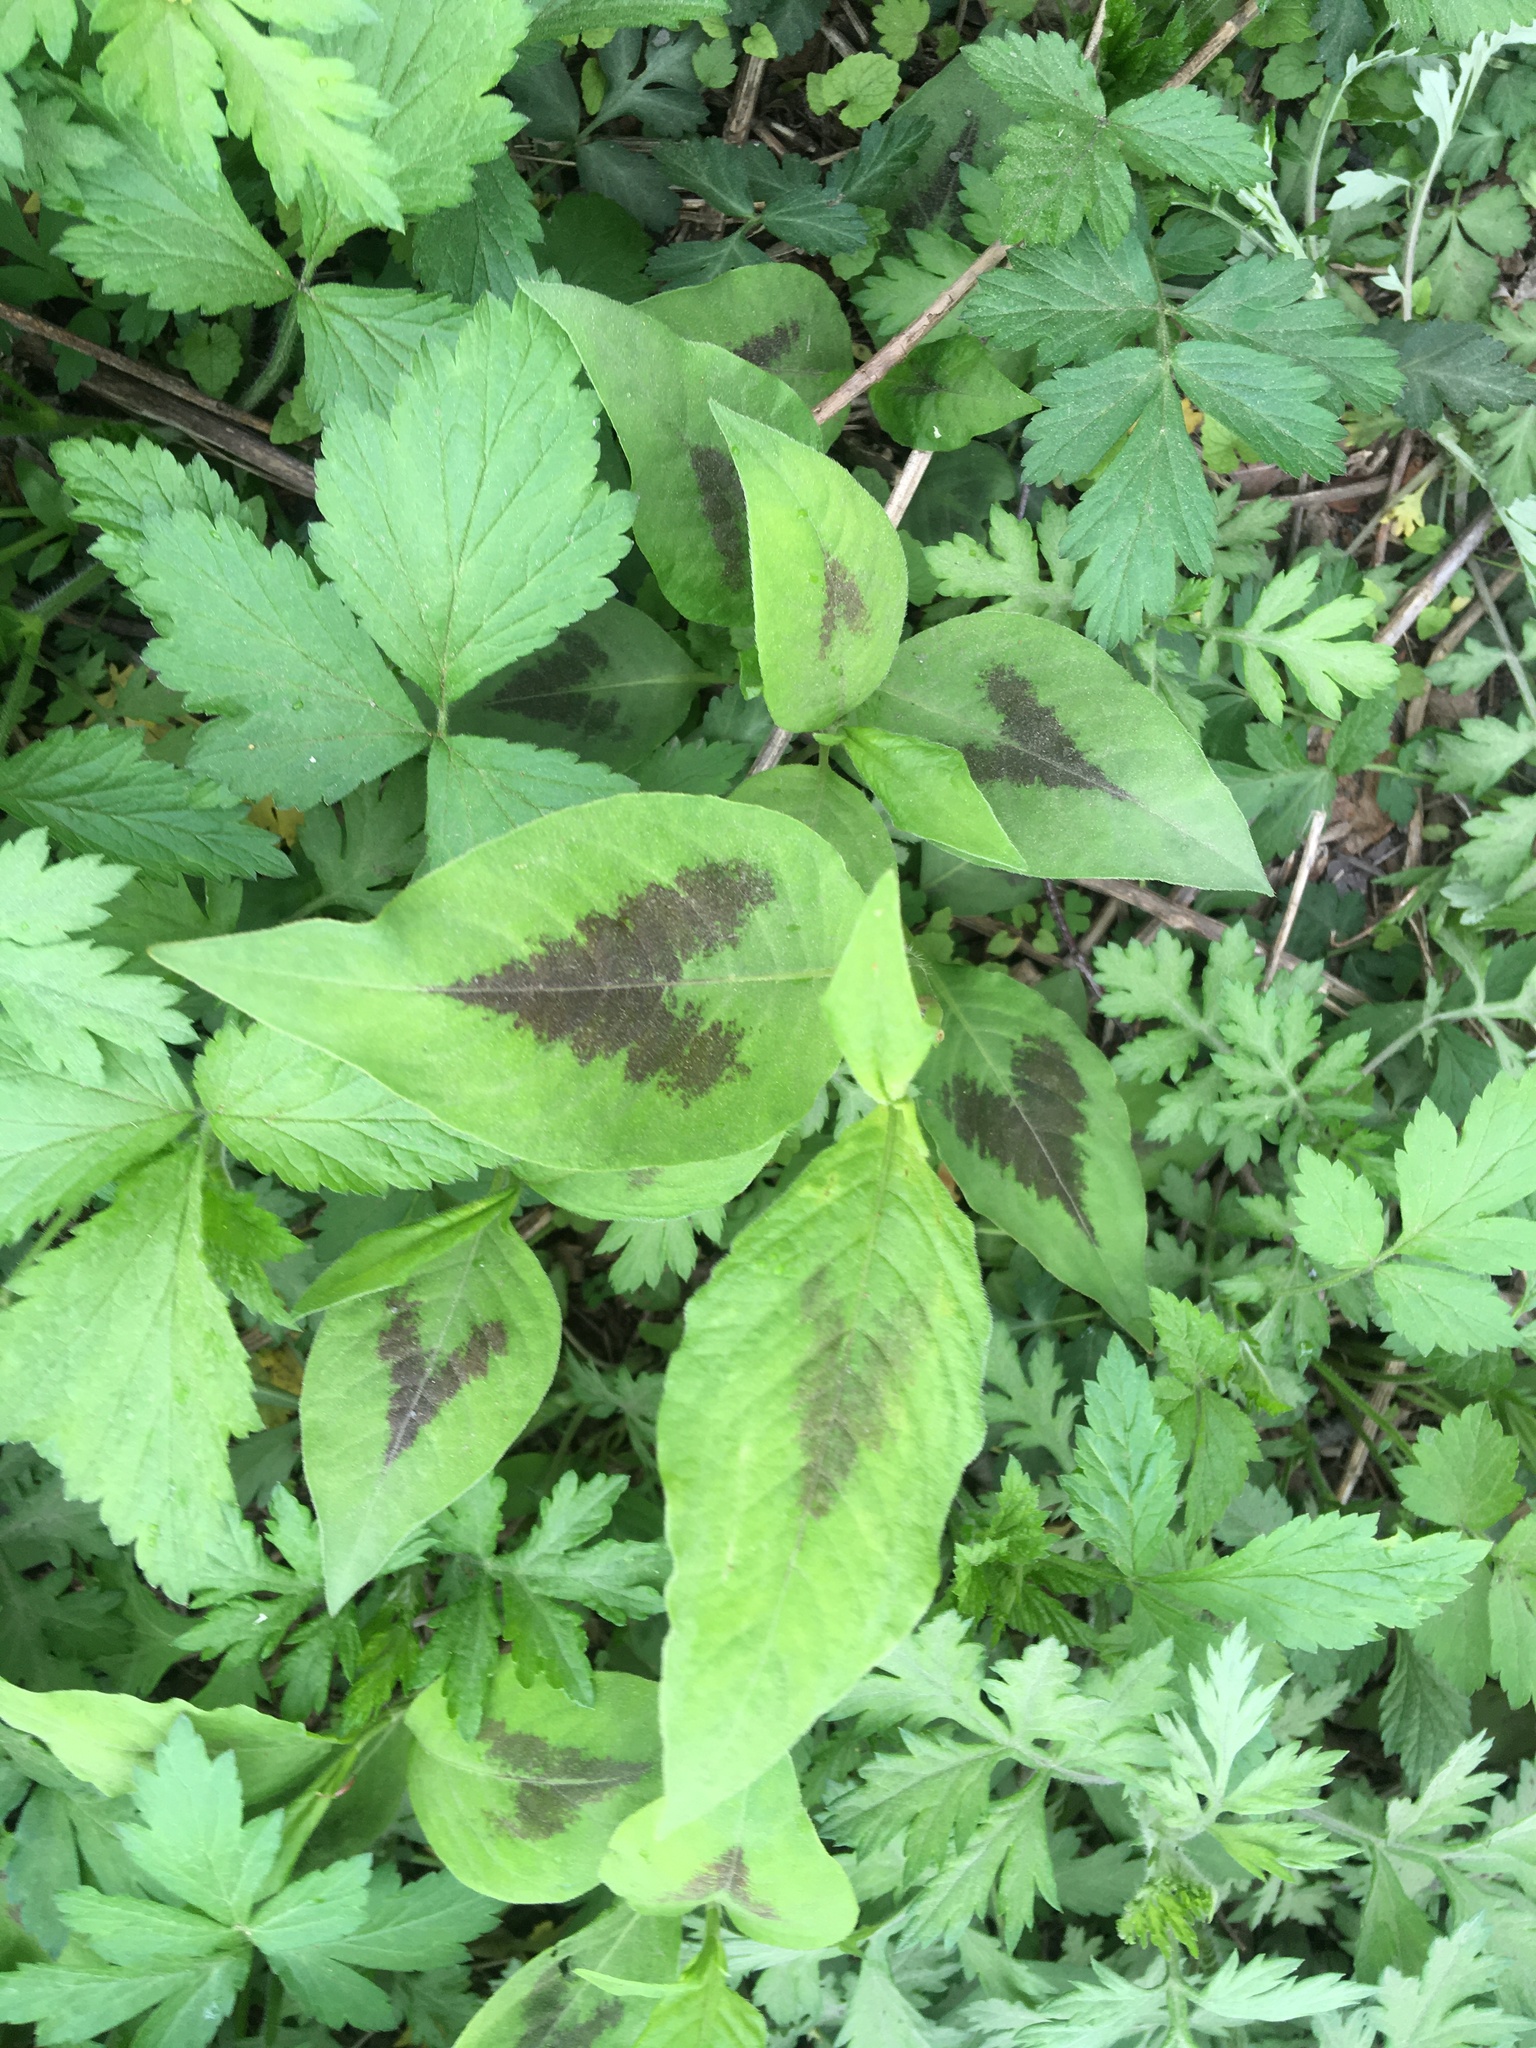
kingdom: Plantae
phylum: Tracheophyta
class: Magnoliopsida
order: Caryophyllales
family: Polygonaceae
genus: Persicaria
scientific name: Persicaria virginiana
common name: Jumpseed
